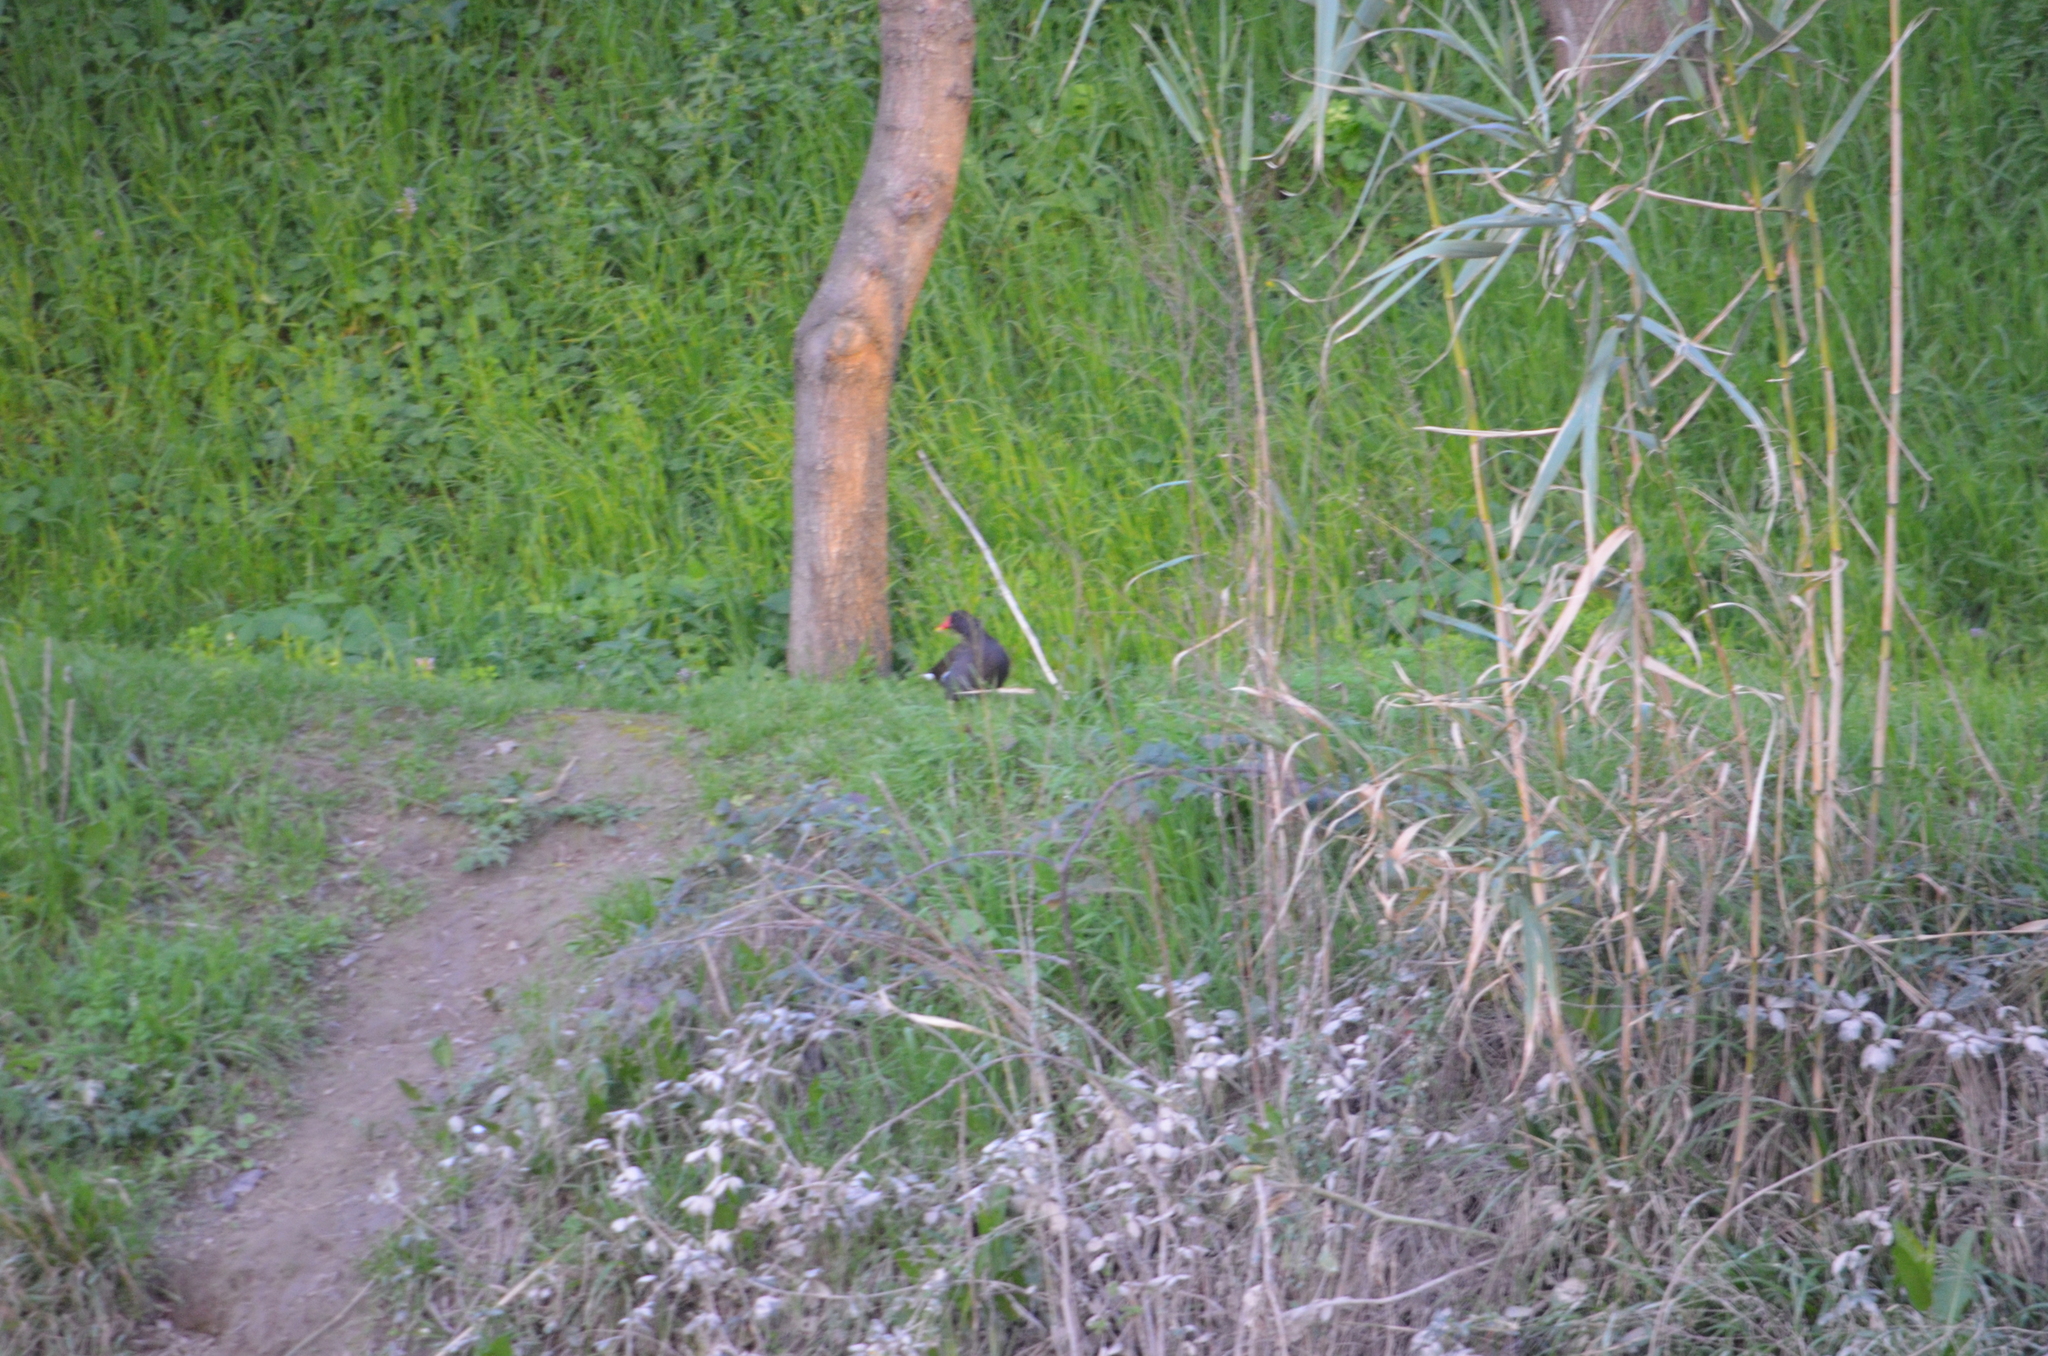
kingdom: Animalia
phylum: Chordata
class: Aves
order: Gruiformes
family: Rallidae
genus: Gallinula
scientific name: Gallinula chloropus
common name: Common moorhen
